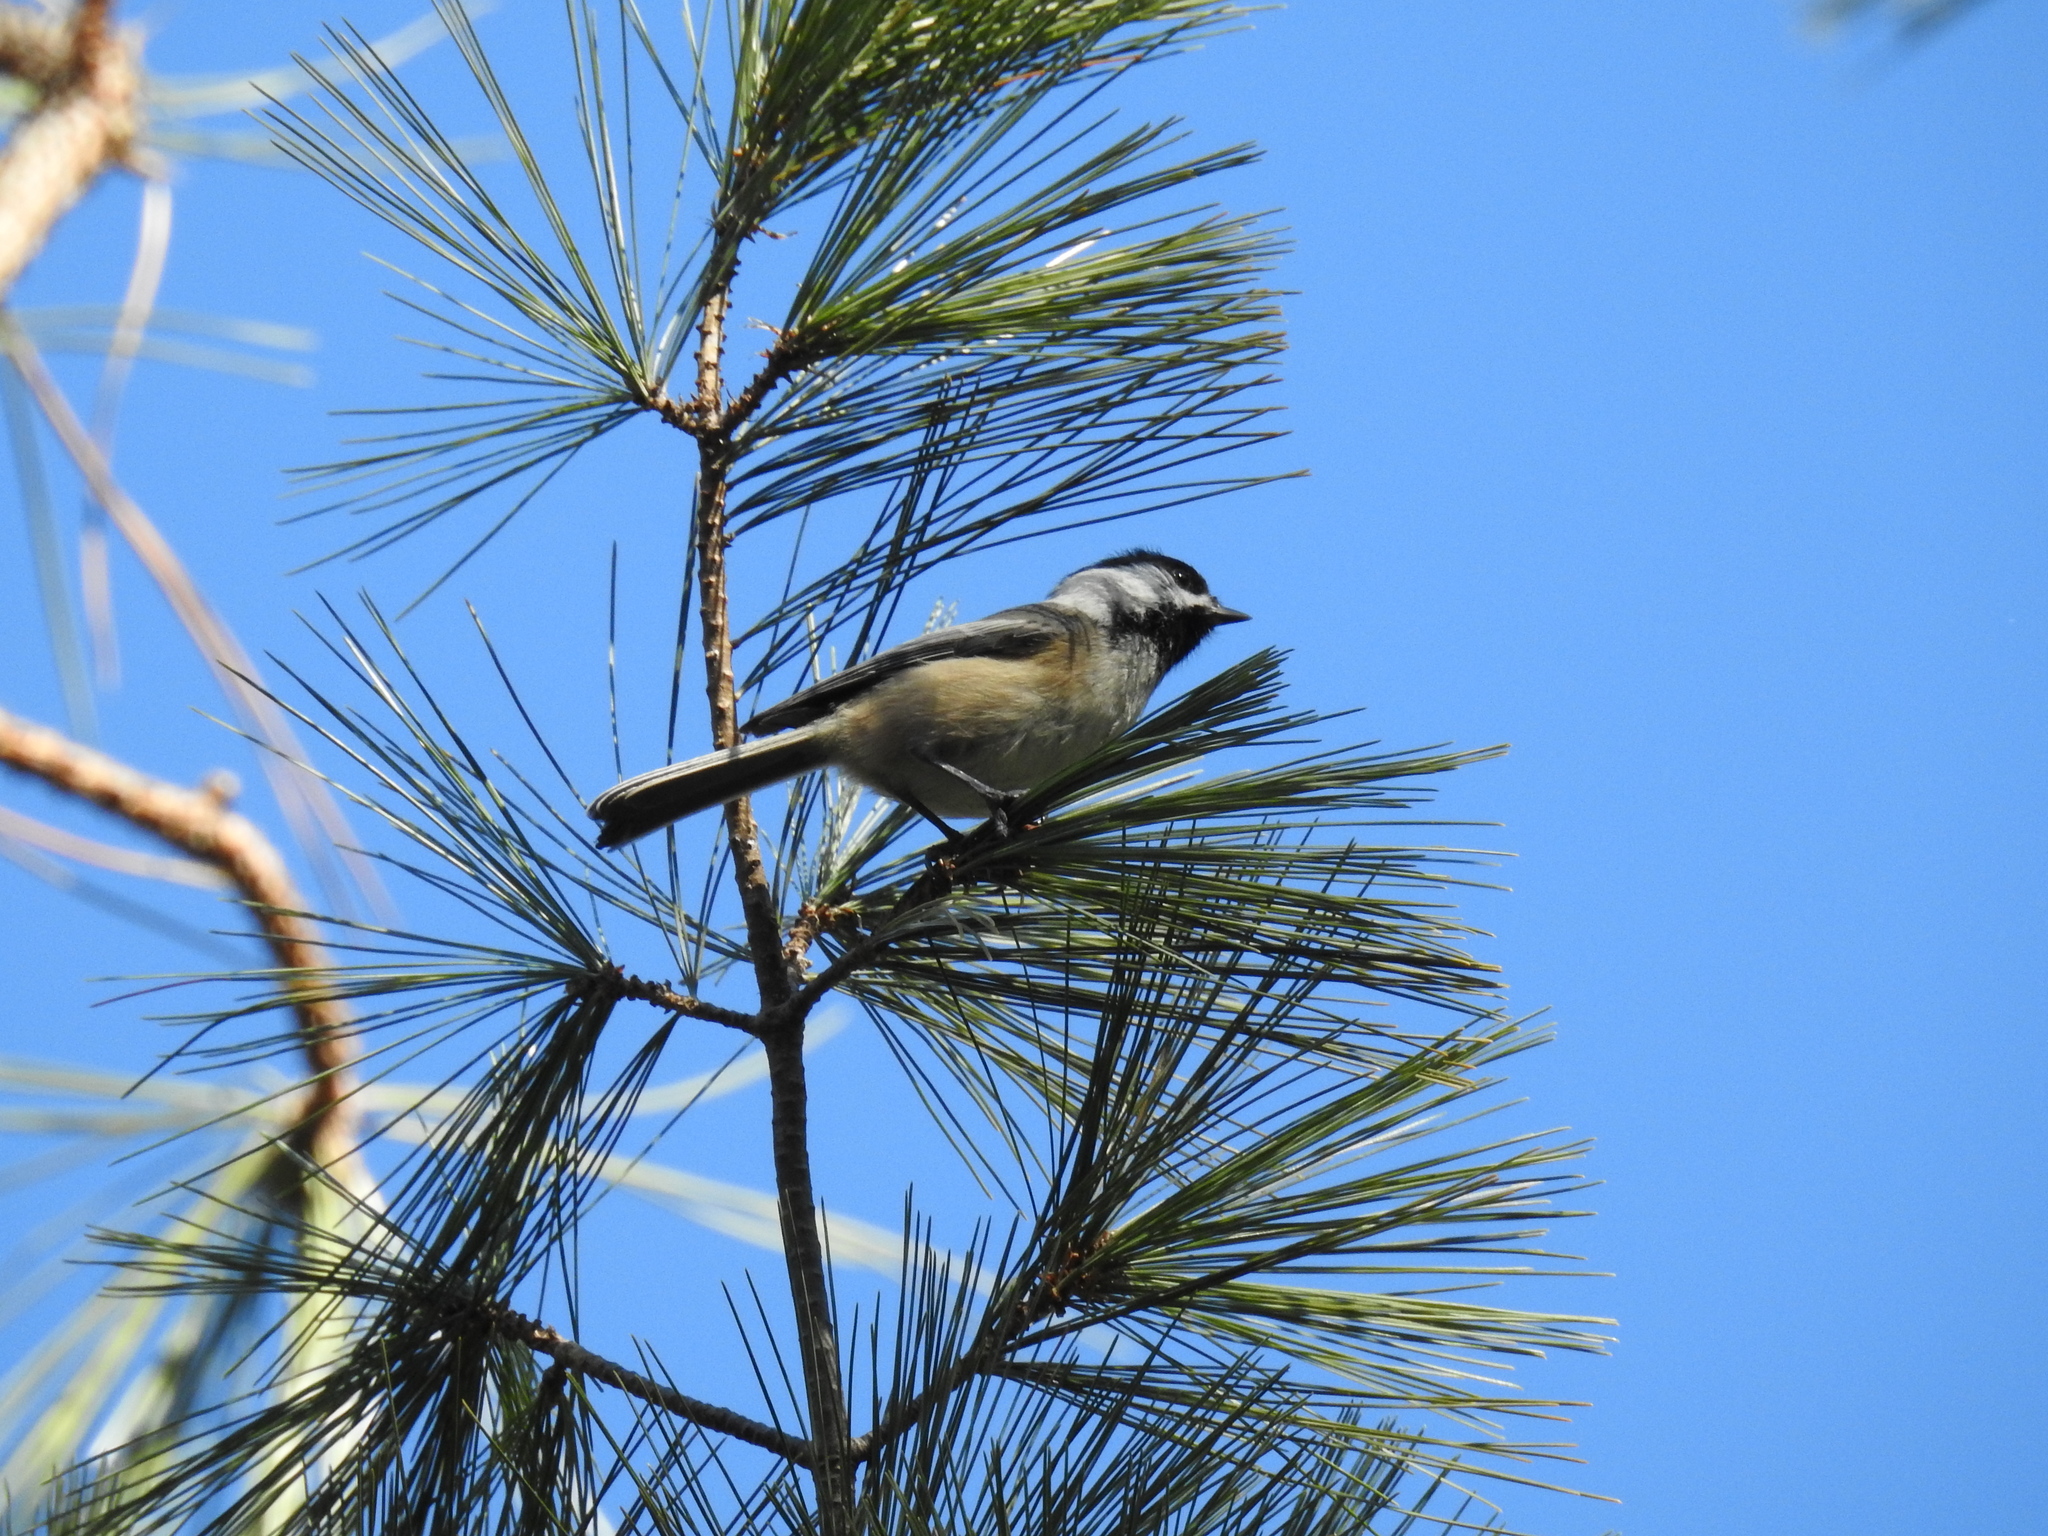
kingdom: Animalia
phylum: Chordata
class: Aves
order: Passeriformes
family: Paridae
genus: Poecile
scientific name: Poecile atricapillus
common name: Black-capped chickadee
